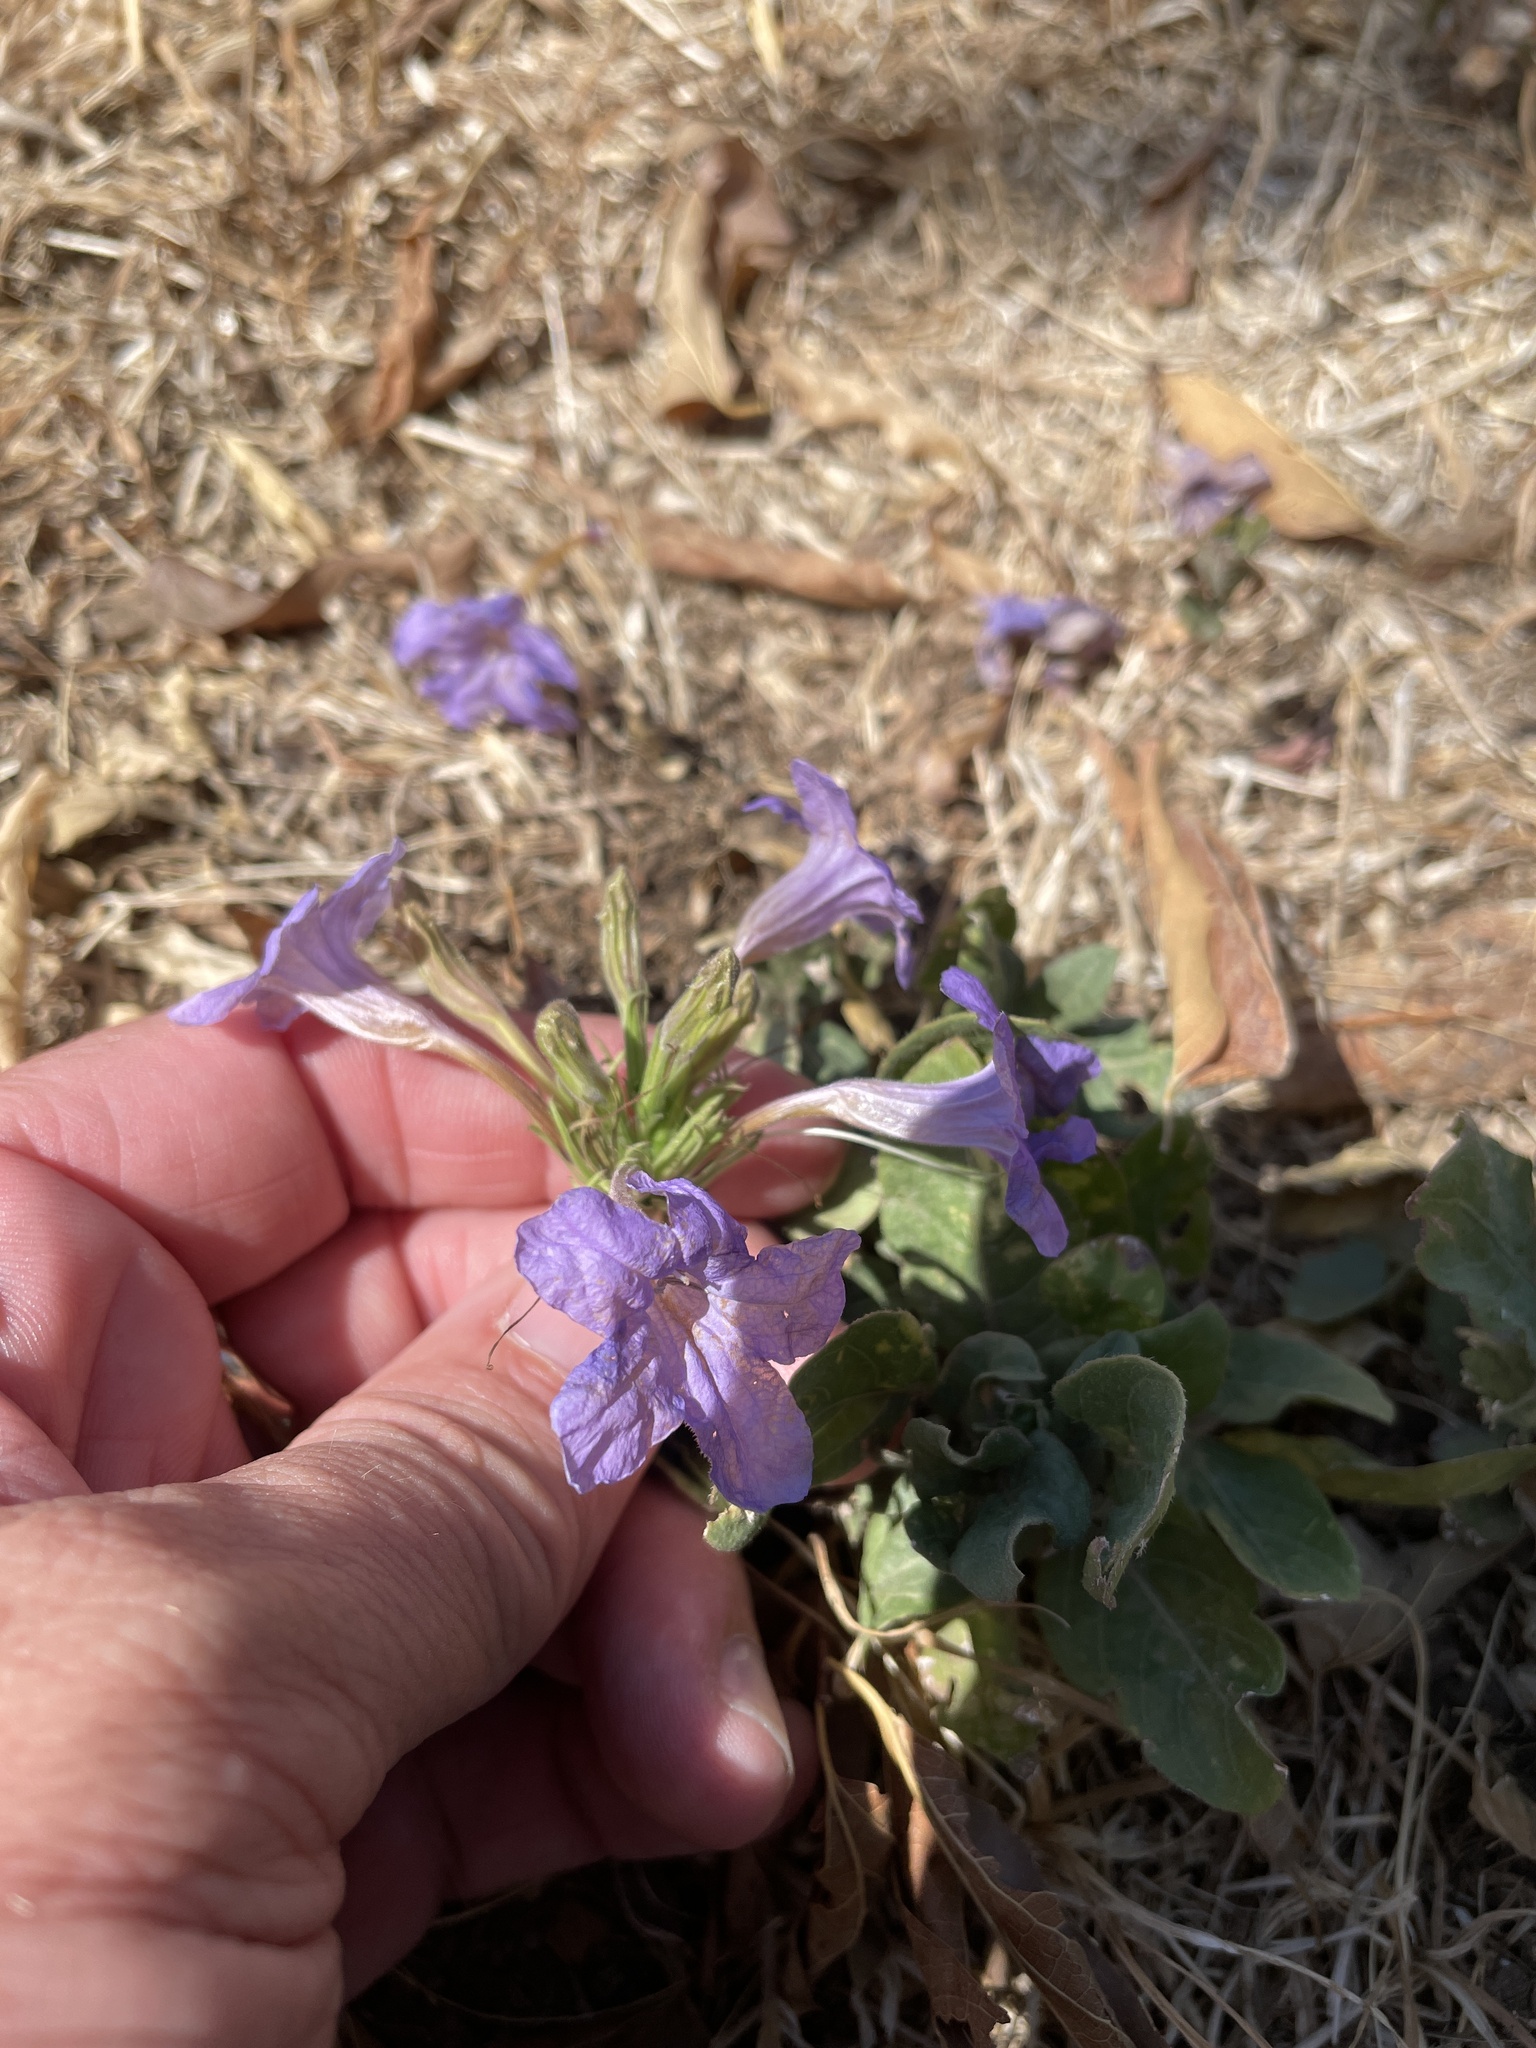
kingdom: Plantae
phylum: Tracheophyta
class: Magnoliopsida
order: Lamiales
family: Acanthaceae
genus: Ruellia
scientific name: Ruellia ciliatiflora
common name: Hairyflower wild petunia
